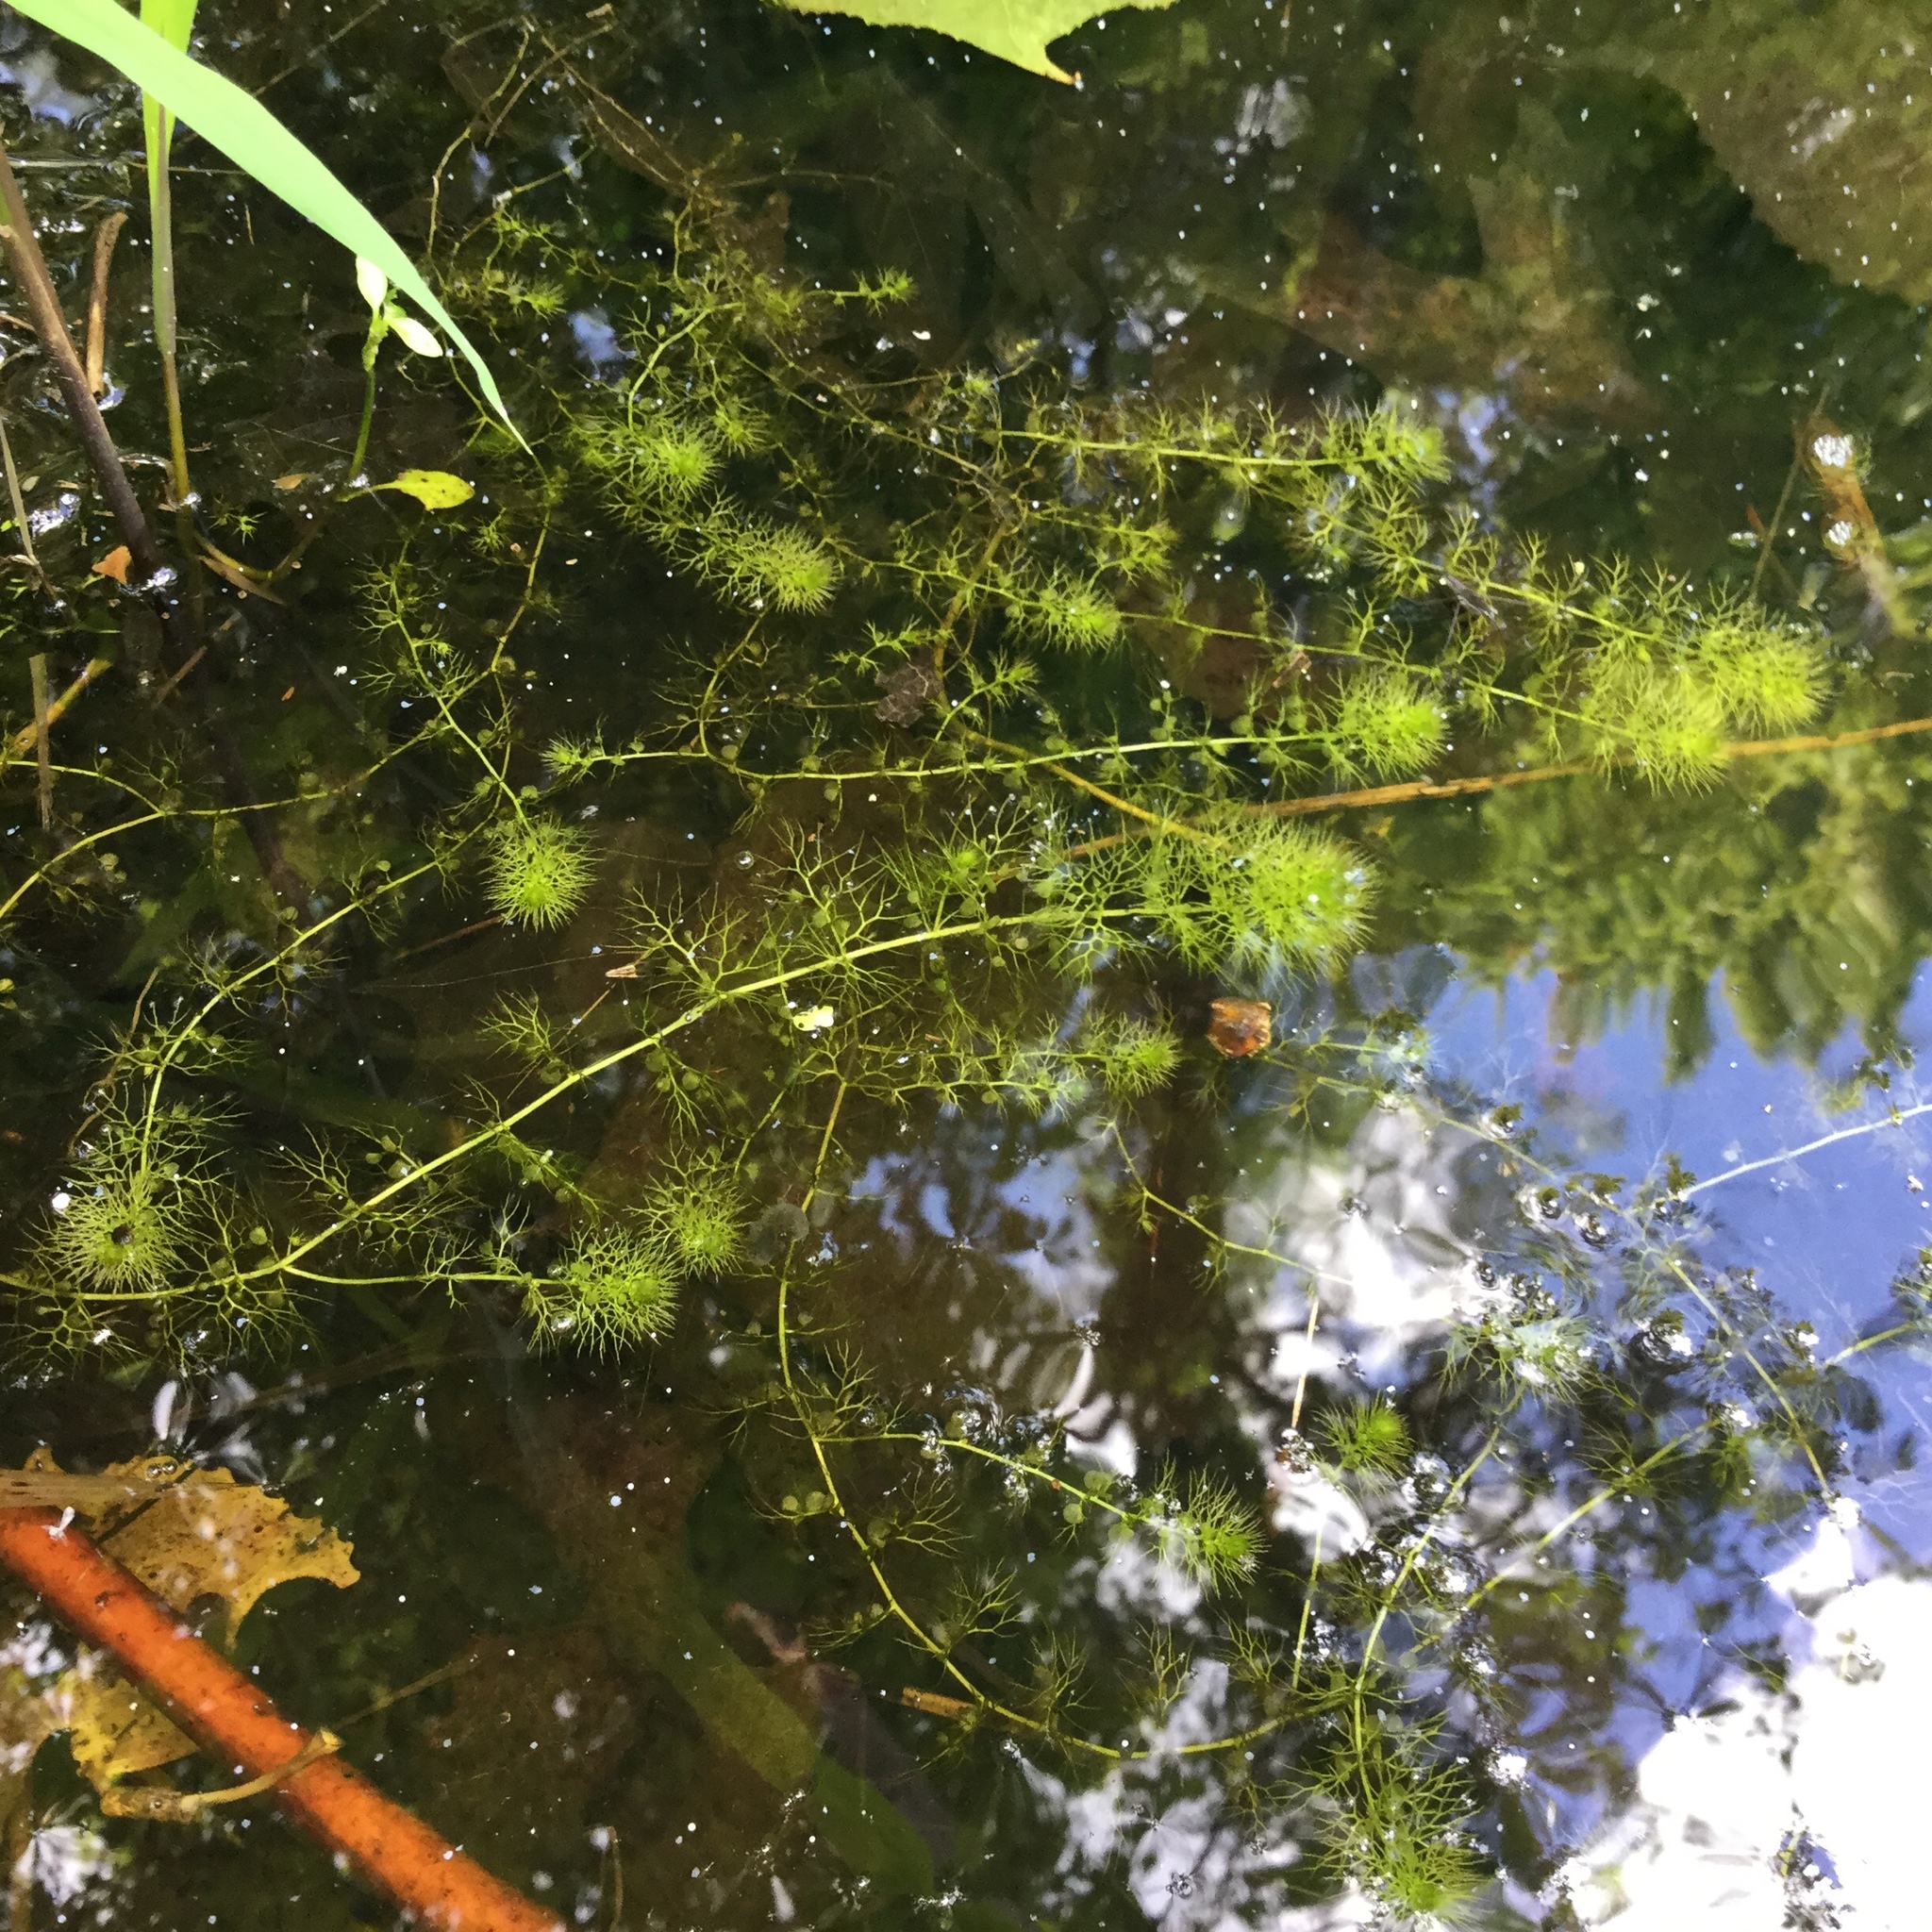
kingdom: Plantae
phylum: Tracheophyta
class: Magnoliopsida
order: Lamiales
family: Lentibulariaceae
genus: Utricularia
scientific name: Utricularia macrorhiza
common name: Common bladderwort
